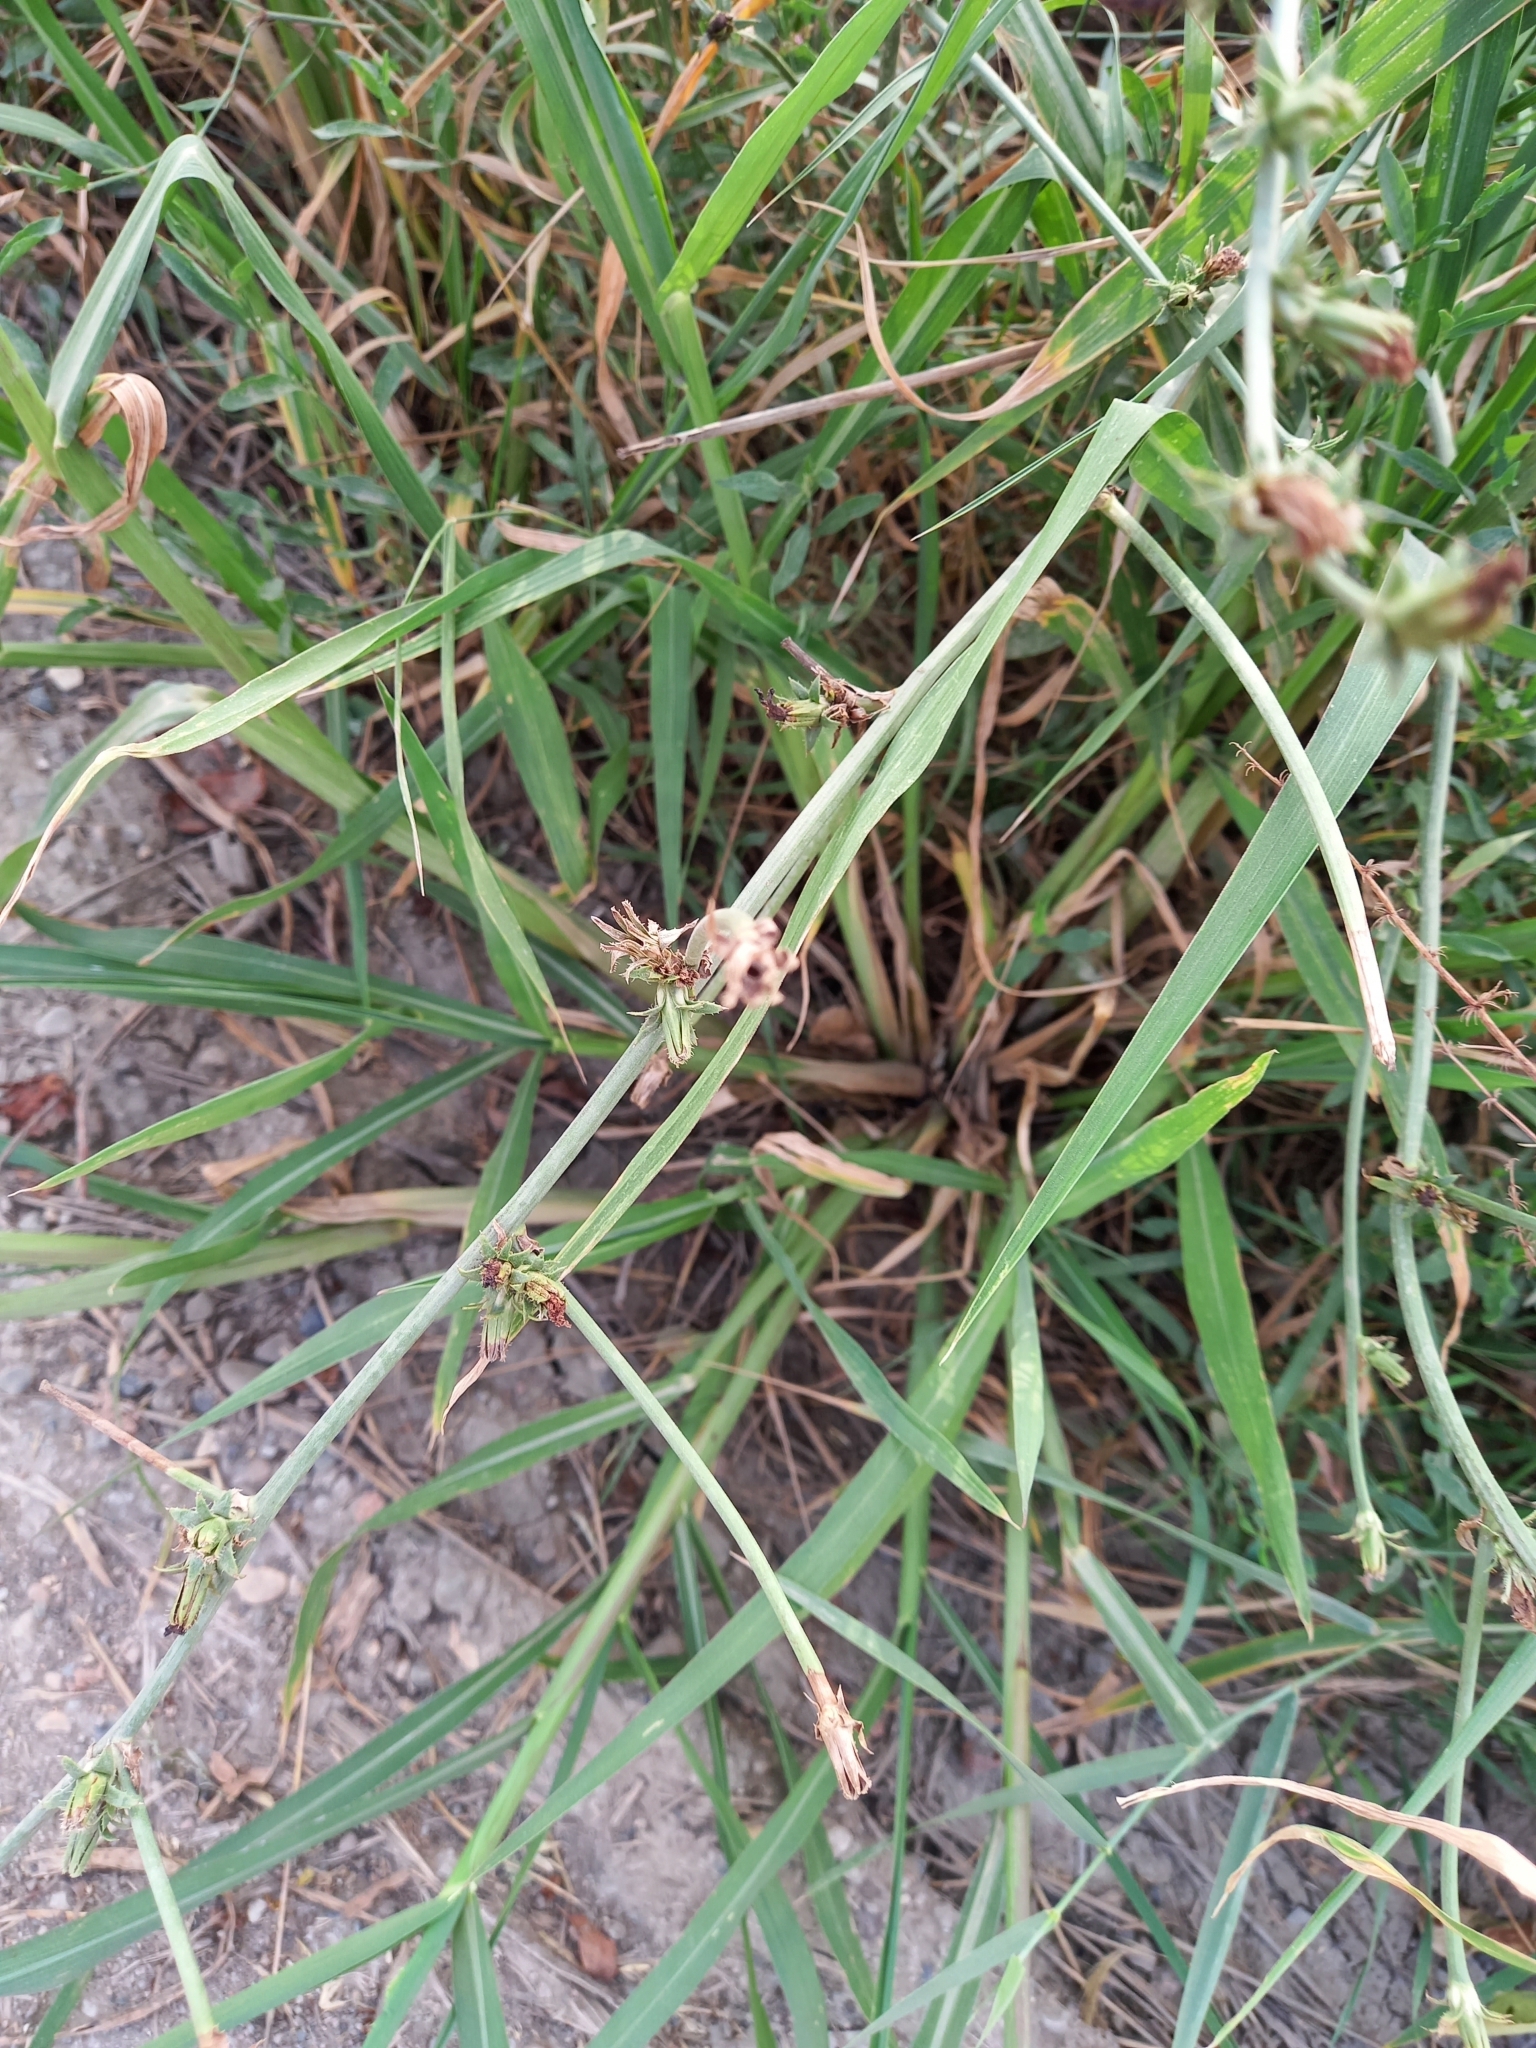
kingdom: Plantae
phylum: Tracheophyta
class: Liliopsida
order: Poales
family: Poaceae
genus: Echinochloa
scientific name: Echinochloa crus-galli
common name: Cockspur
